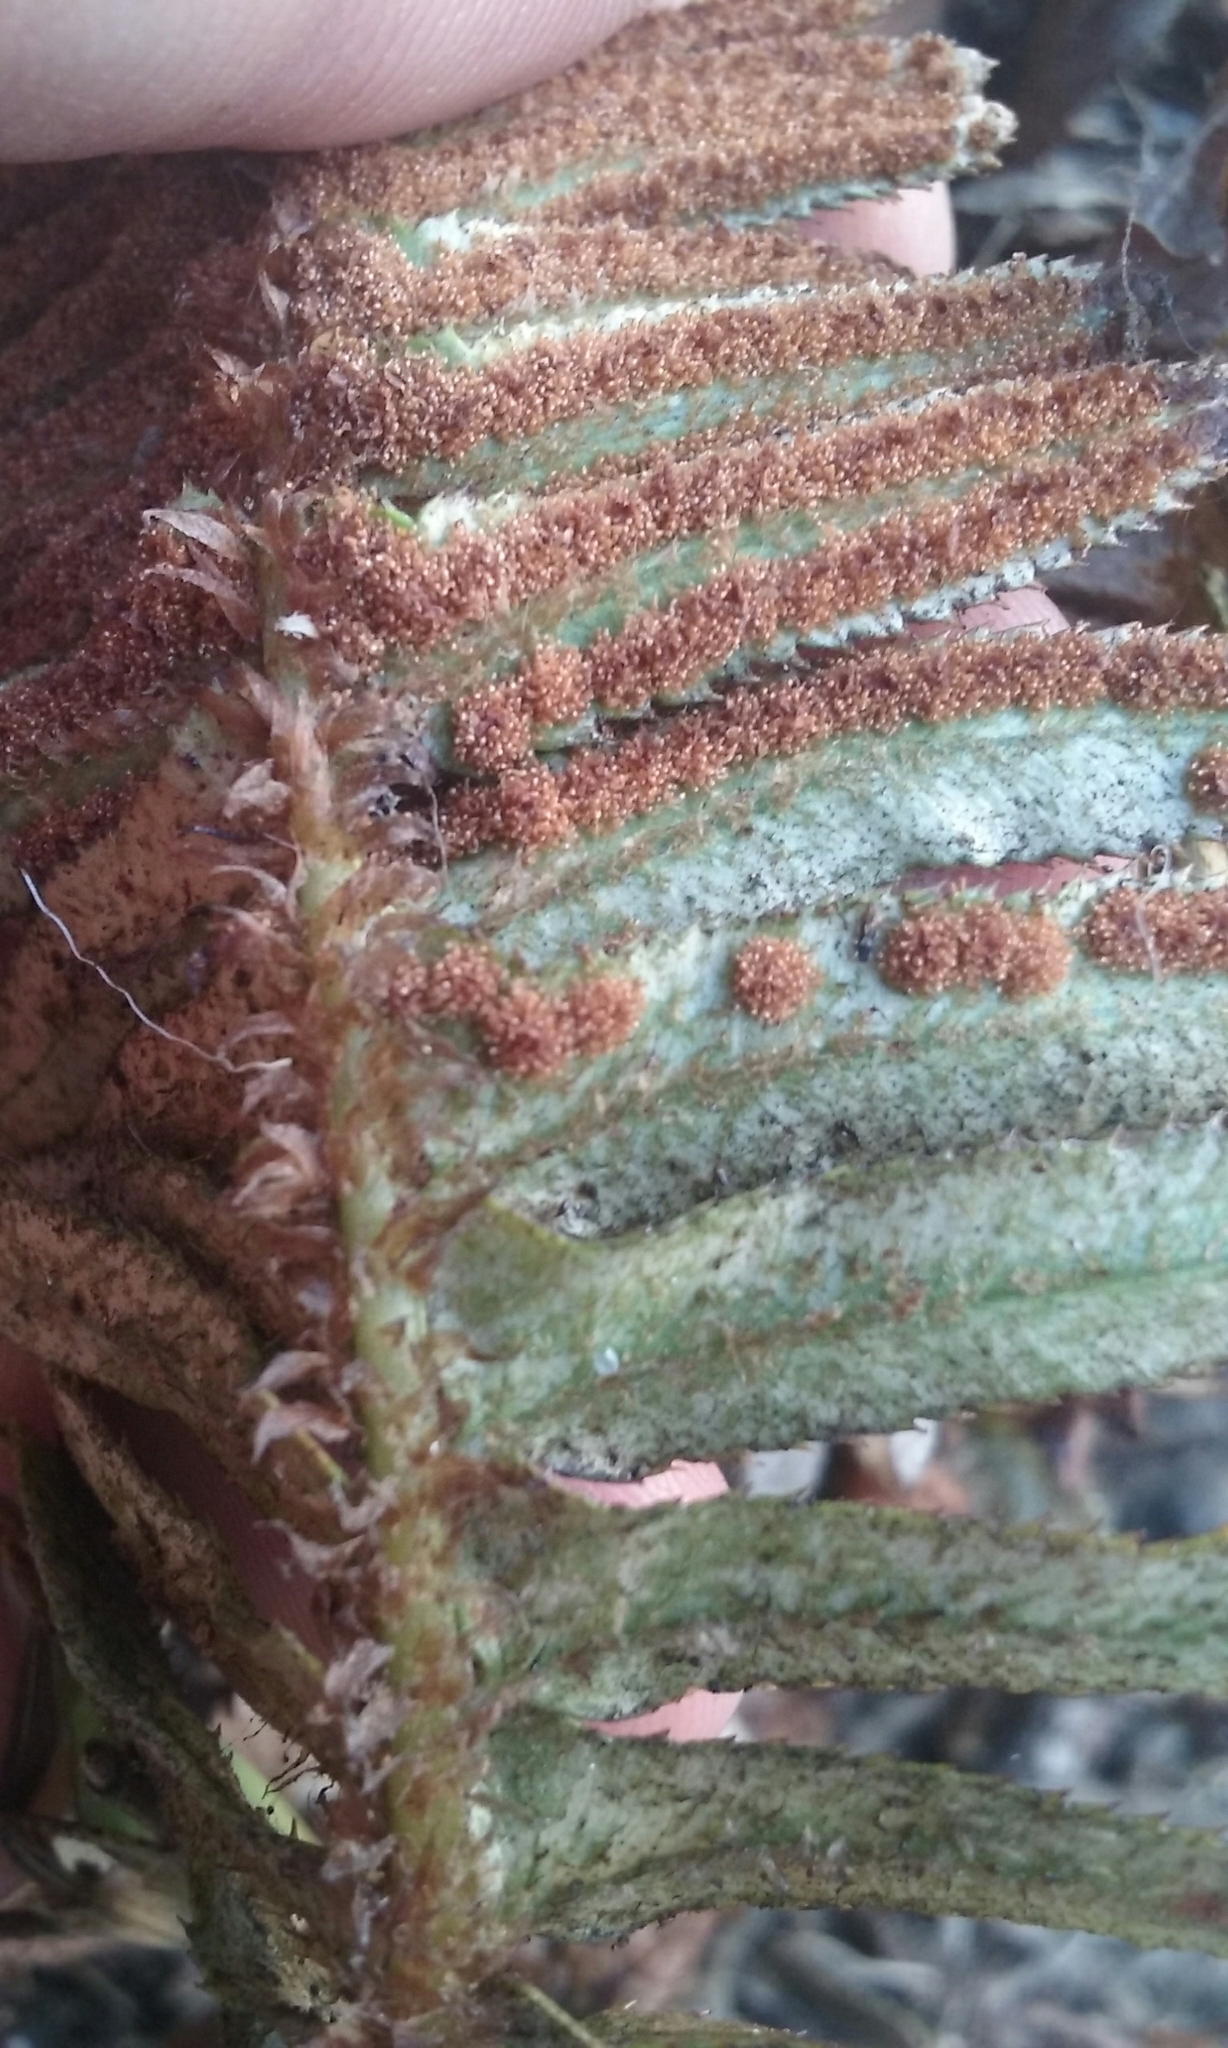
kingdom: Plantae
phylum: Tracheophyta
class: Polypodiopsida
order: Polypodiales
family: Dryopteridaceae
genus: Polystichum
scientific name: Polystichum munitum
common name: Western sword-fern
